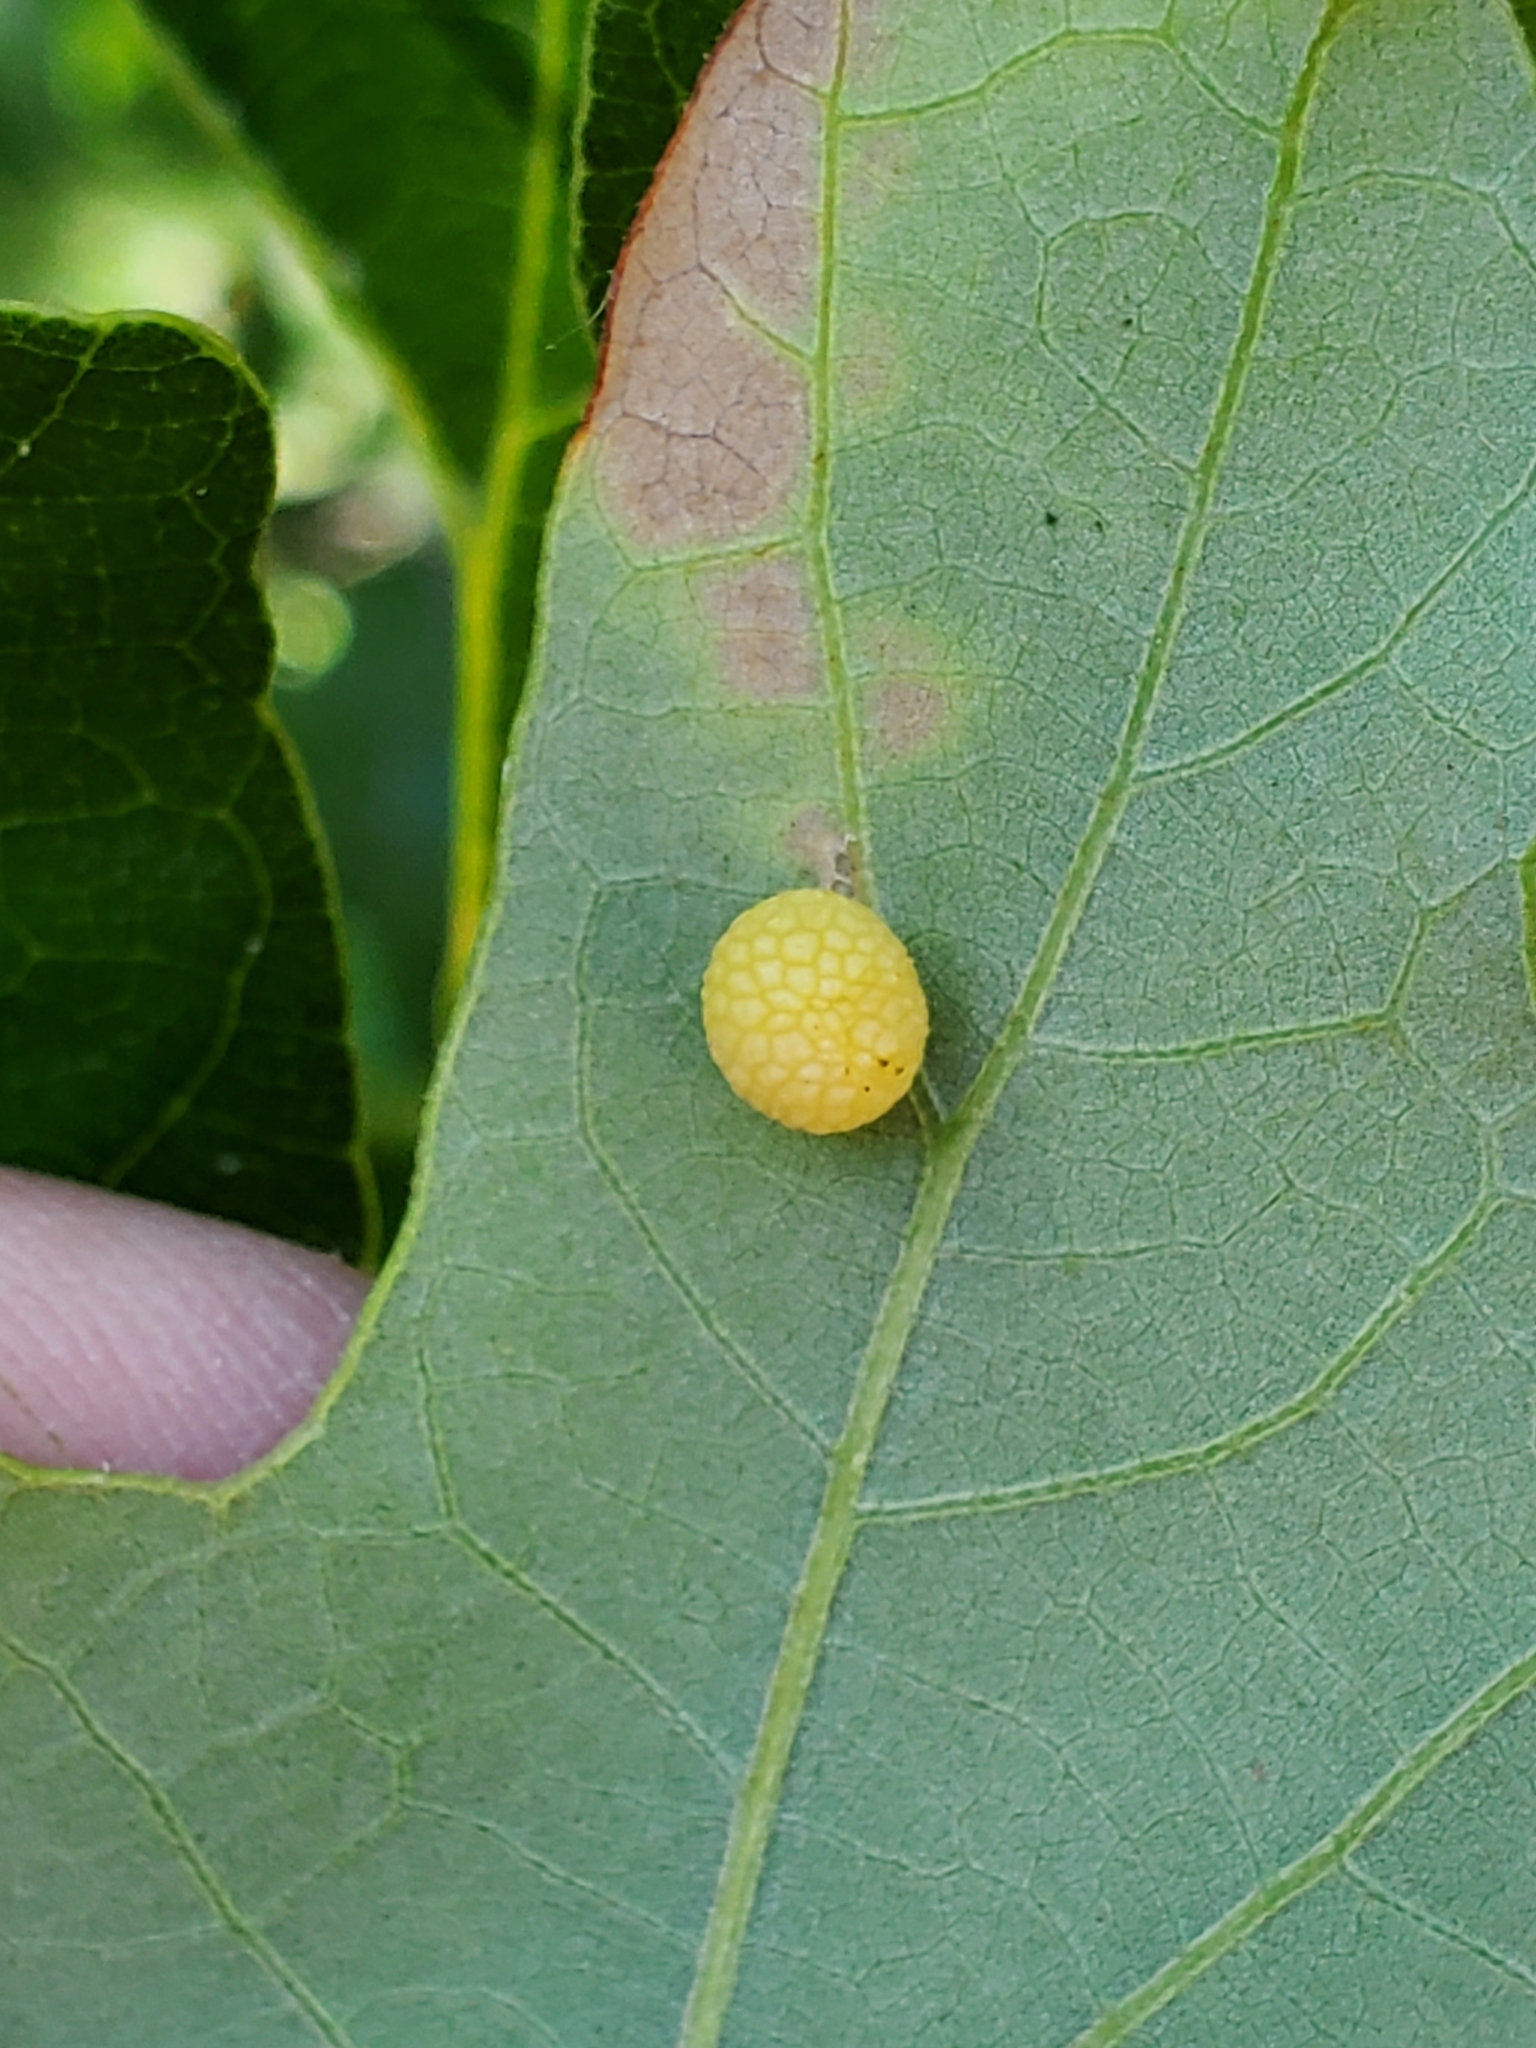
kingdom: Animalia
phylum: Arthropoda
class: Insecta
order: Hymenoptera
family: Cynipidae
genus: Acraspis
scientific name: Acraspis quercushirta
